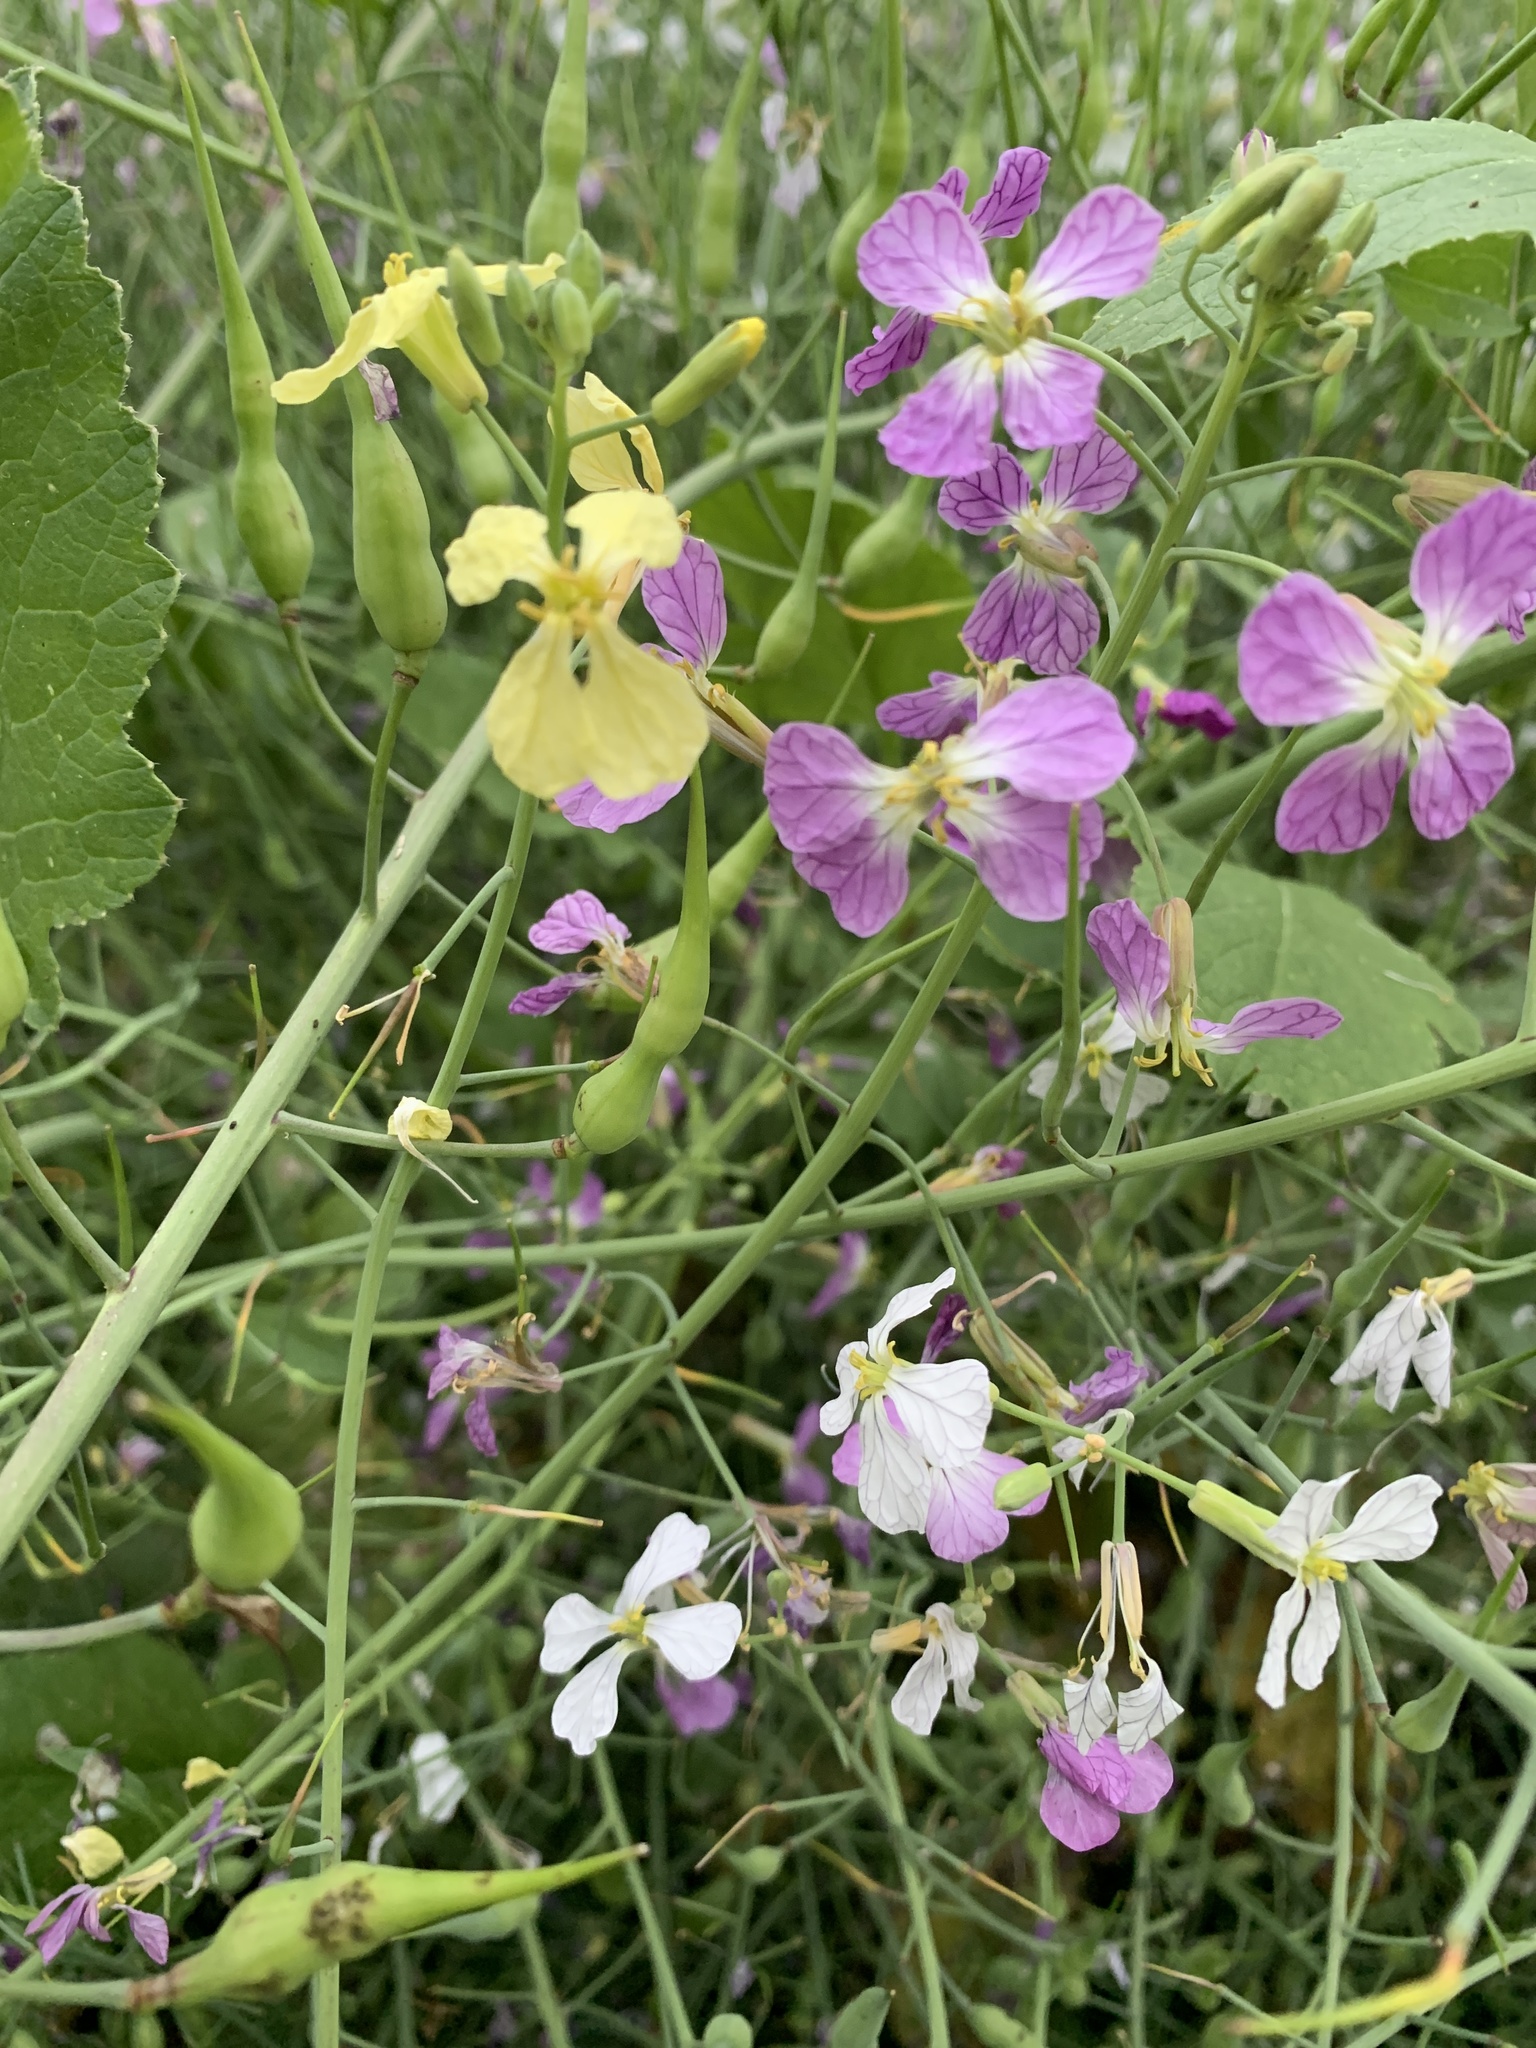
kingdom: Plantae
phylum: Tracheophyta
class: Magnoliopsida
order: Brassicales
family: Brassicaceae
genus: Raphanus
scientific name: Raphanus sativus
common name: Cultivated radish
